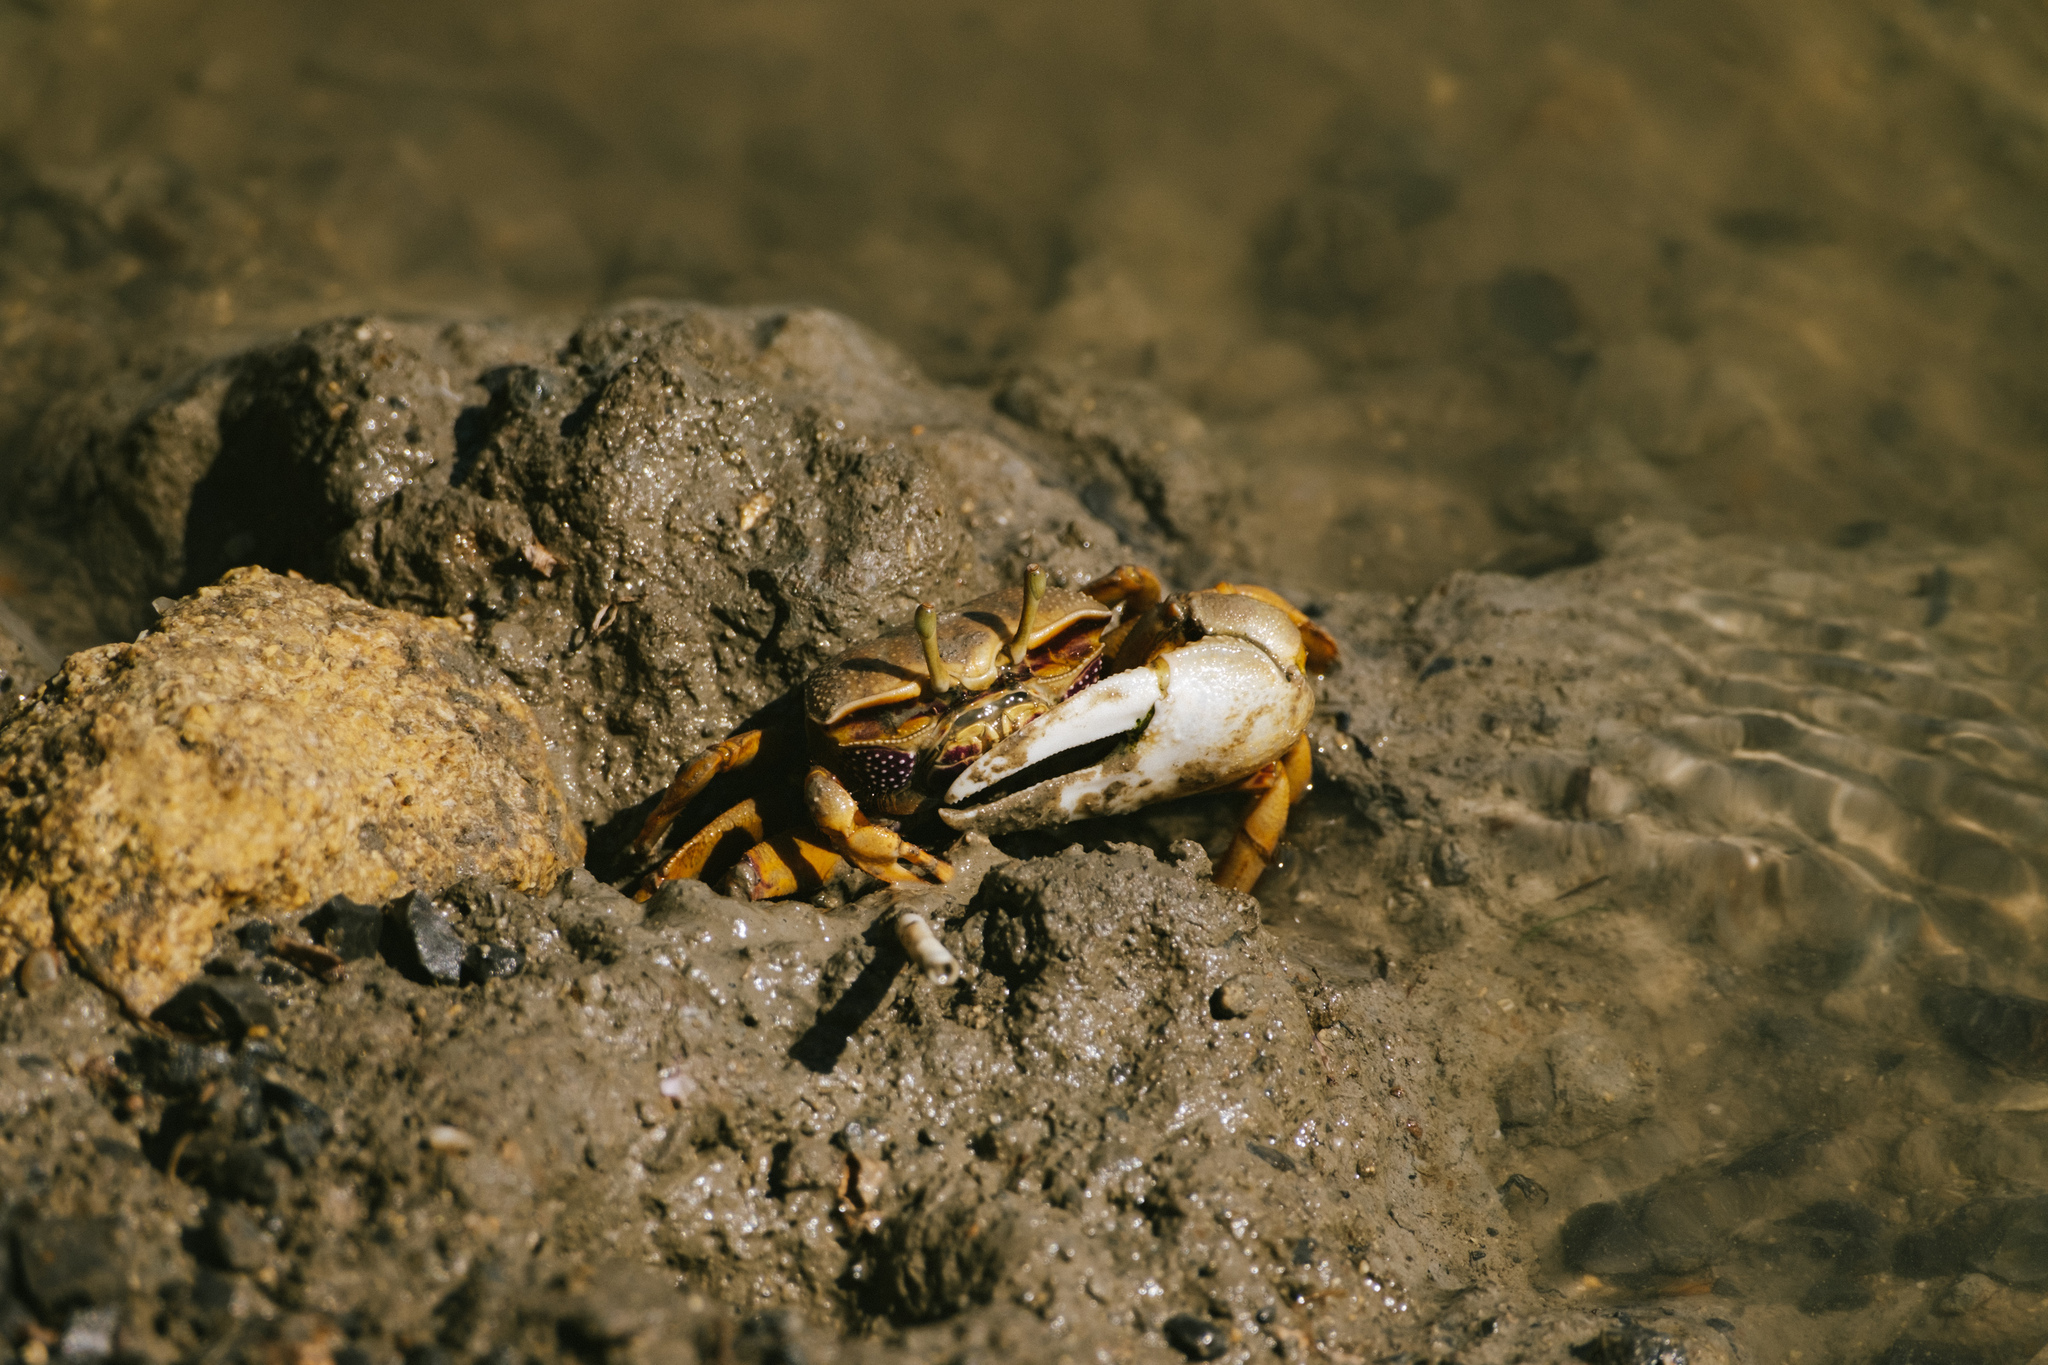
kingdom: Animalia
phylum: Arthropoda
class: Malacostraca
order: Decapoda
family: Ocypodidae
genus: Afruca
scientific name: Afruca tangeri
